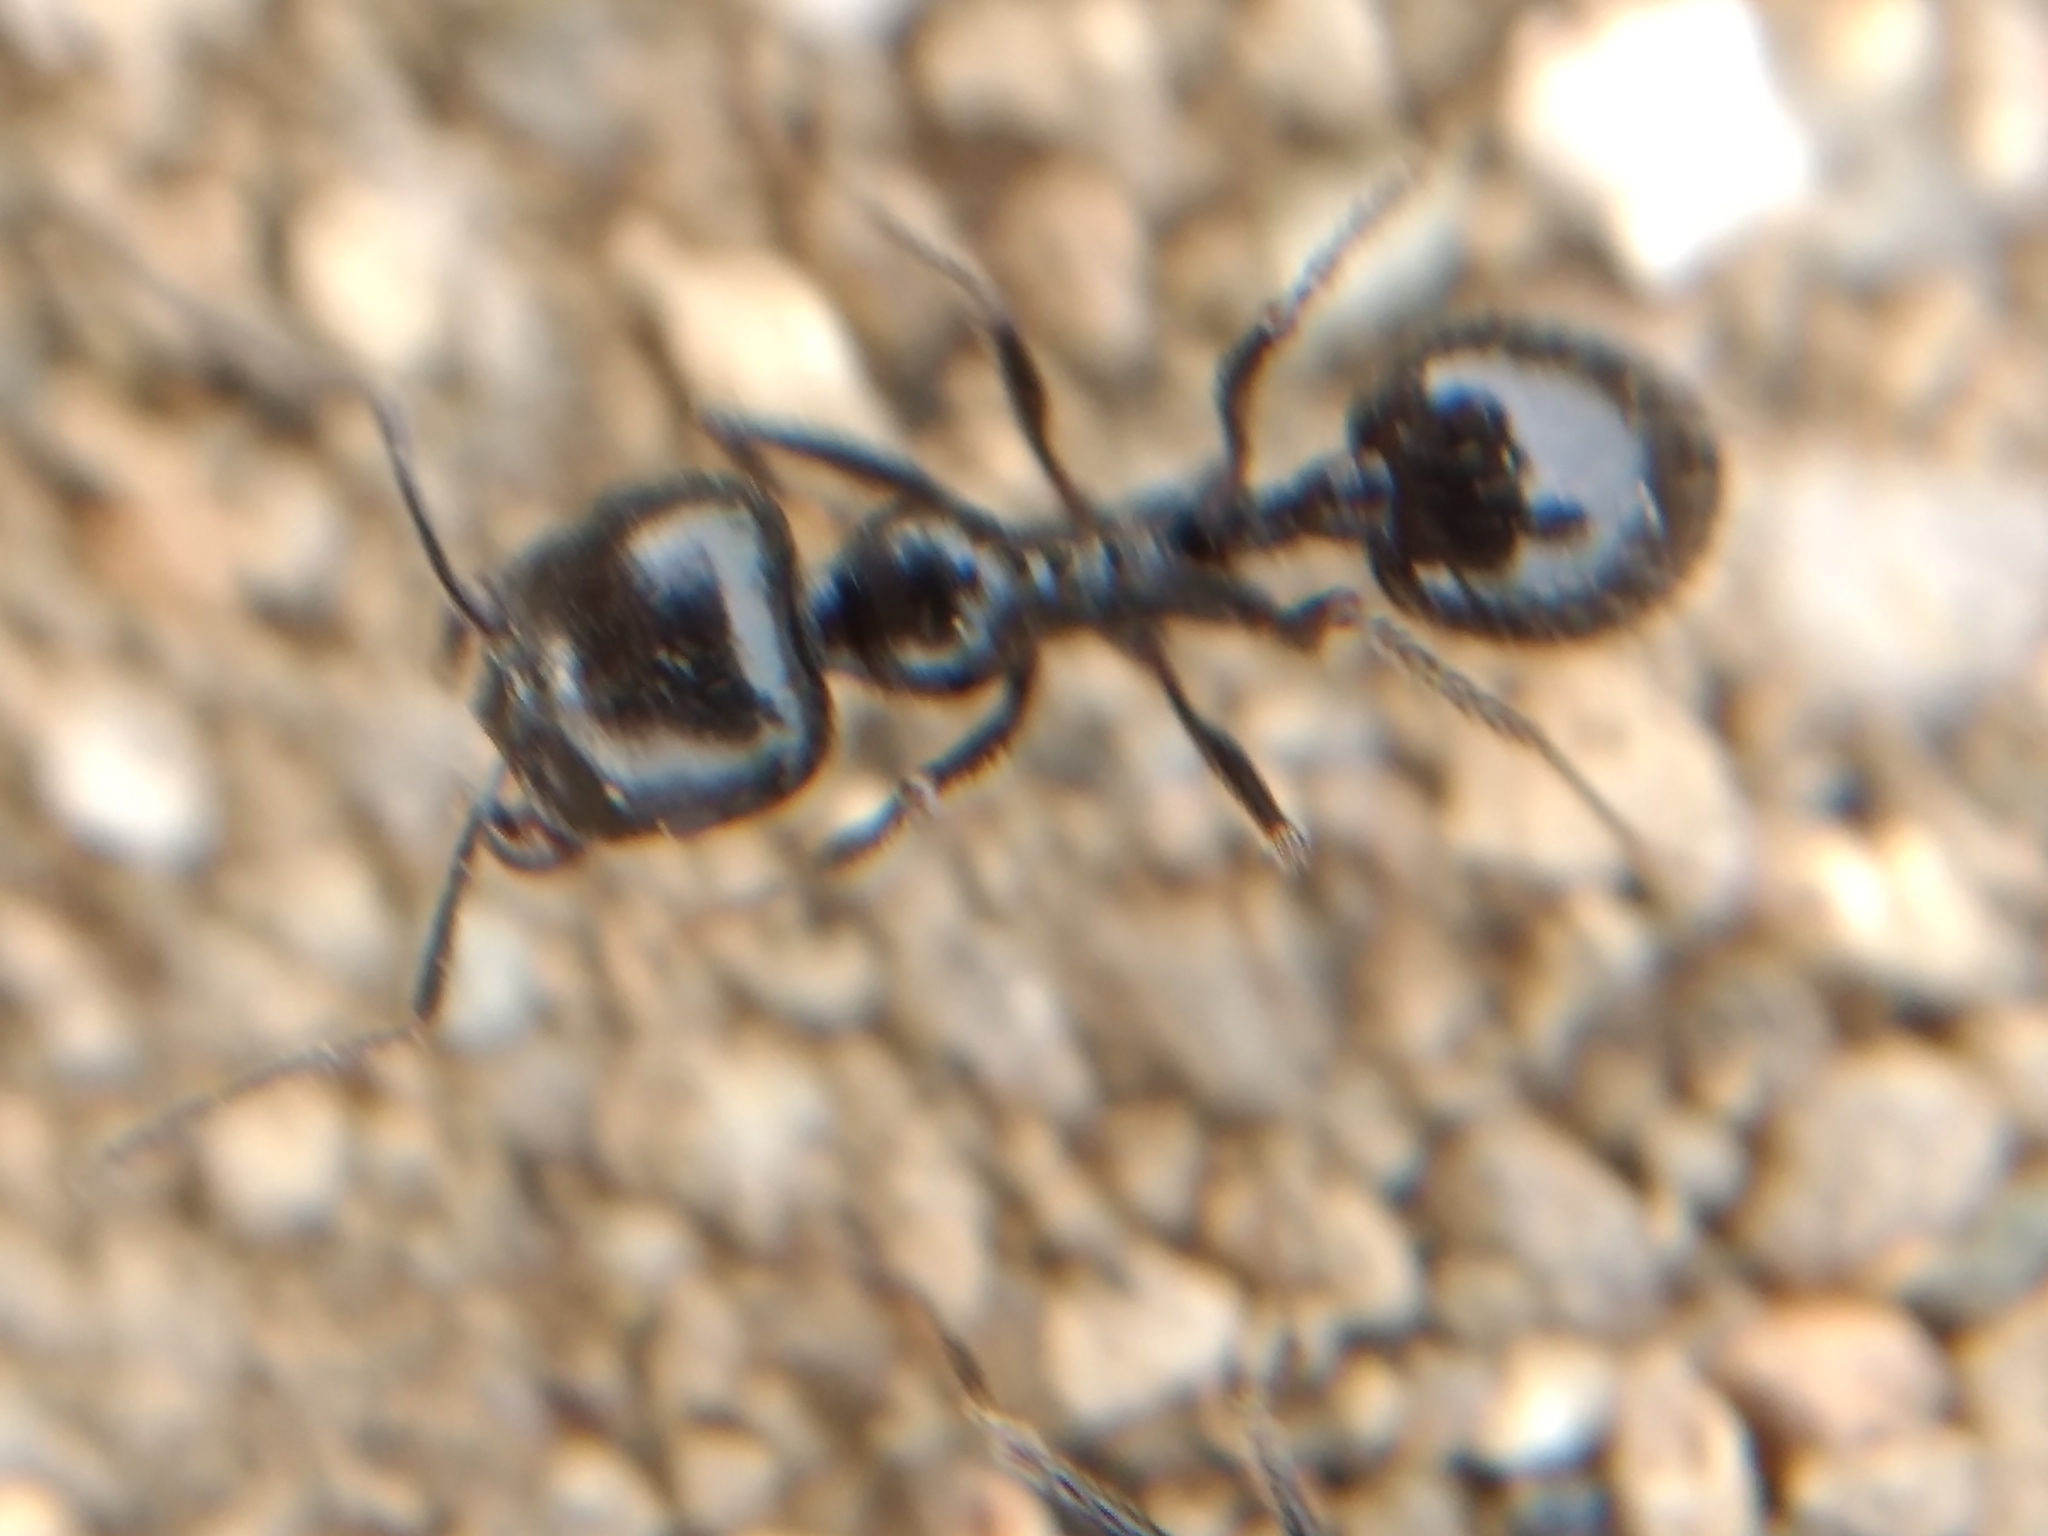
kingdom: Animalia
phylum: Arthropoda
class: Insecta
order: Hymenoptera
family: Formicidae
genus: Messor
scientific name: Messor pergandei
